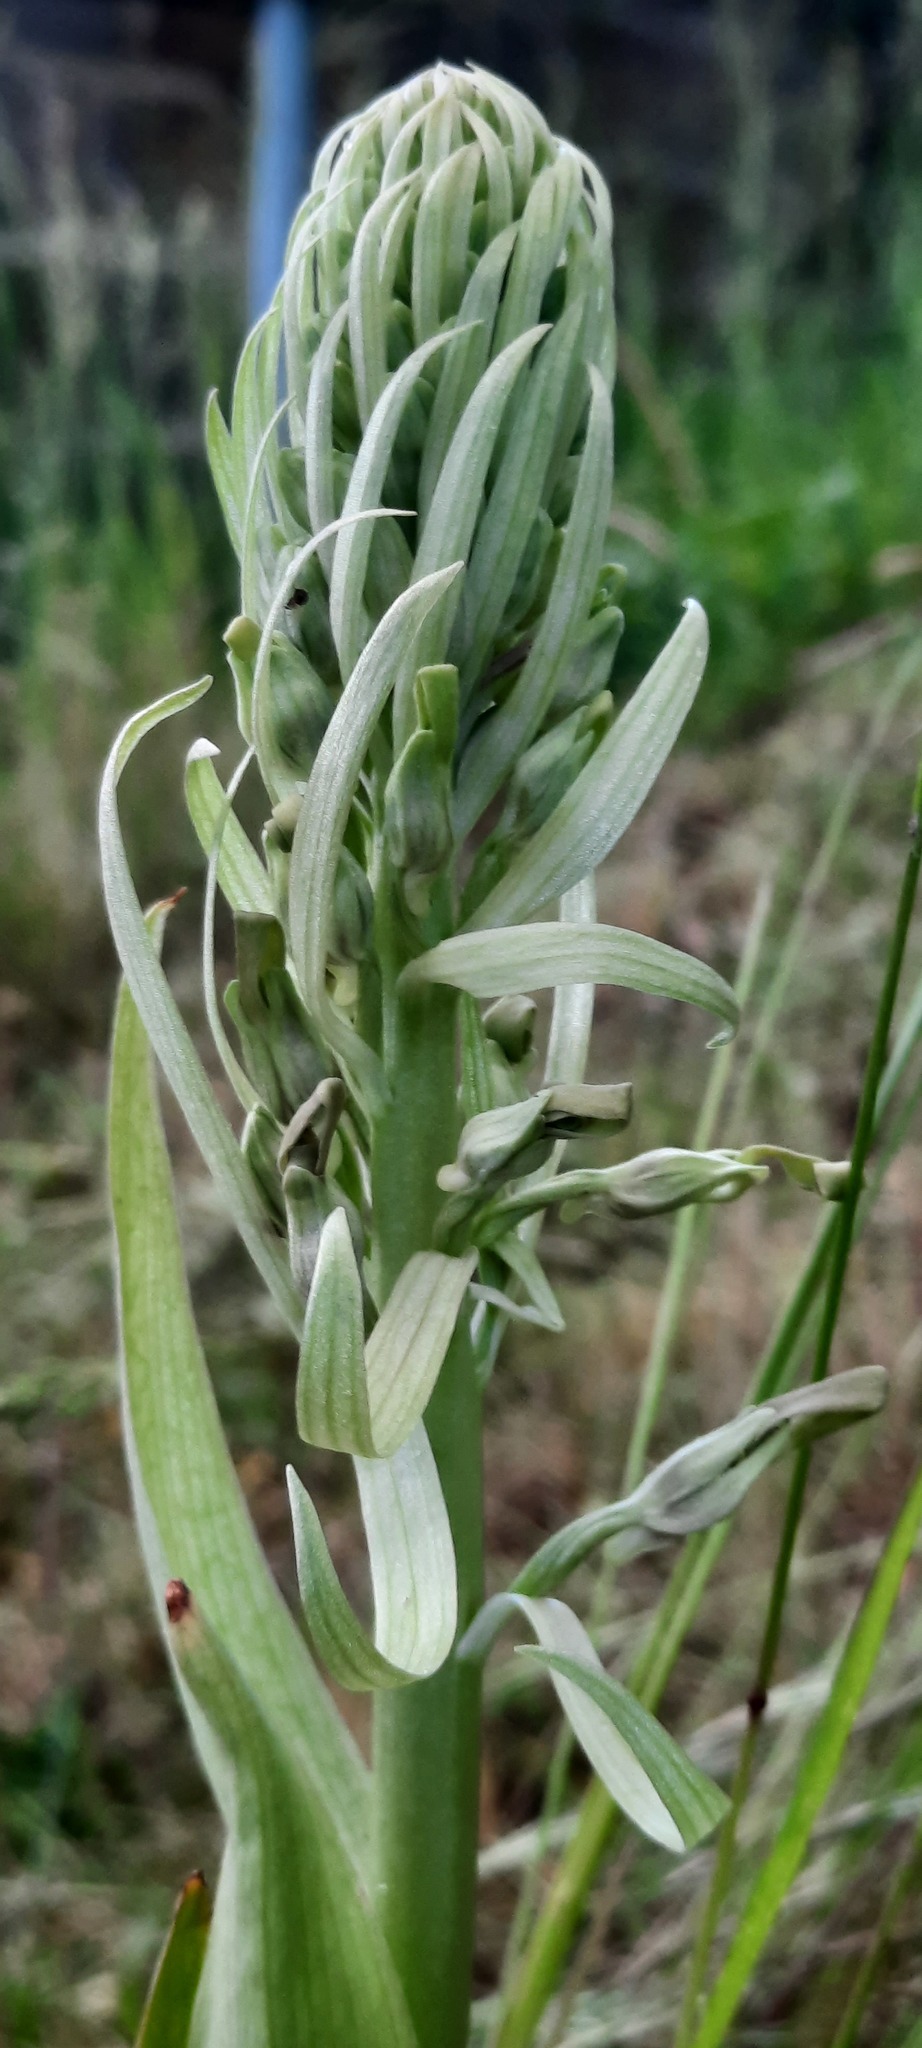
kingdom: Plantae
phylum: Tracheophyta
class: Liliopsida
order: Asparagales
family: Orchidaceae
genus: Himantoglossum
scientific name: Himantoglossum hircinum
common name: Lizard orchid
